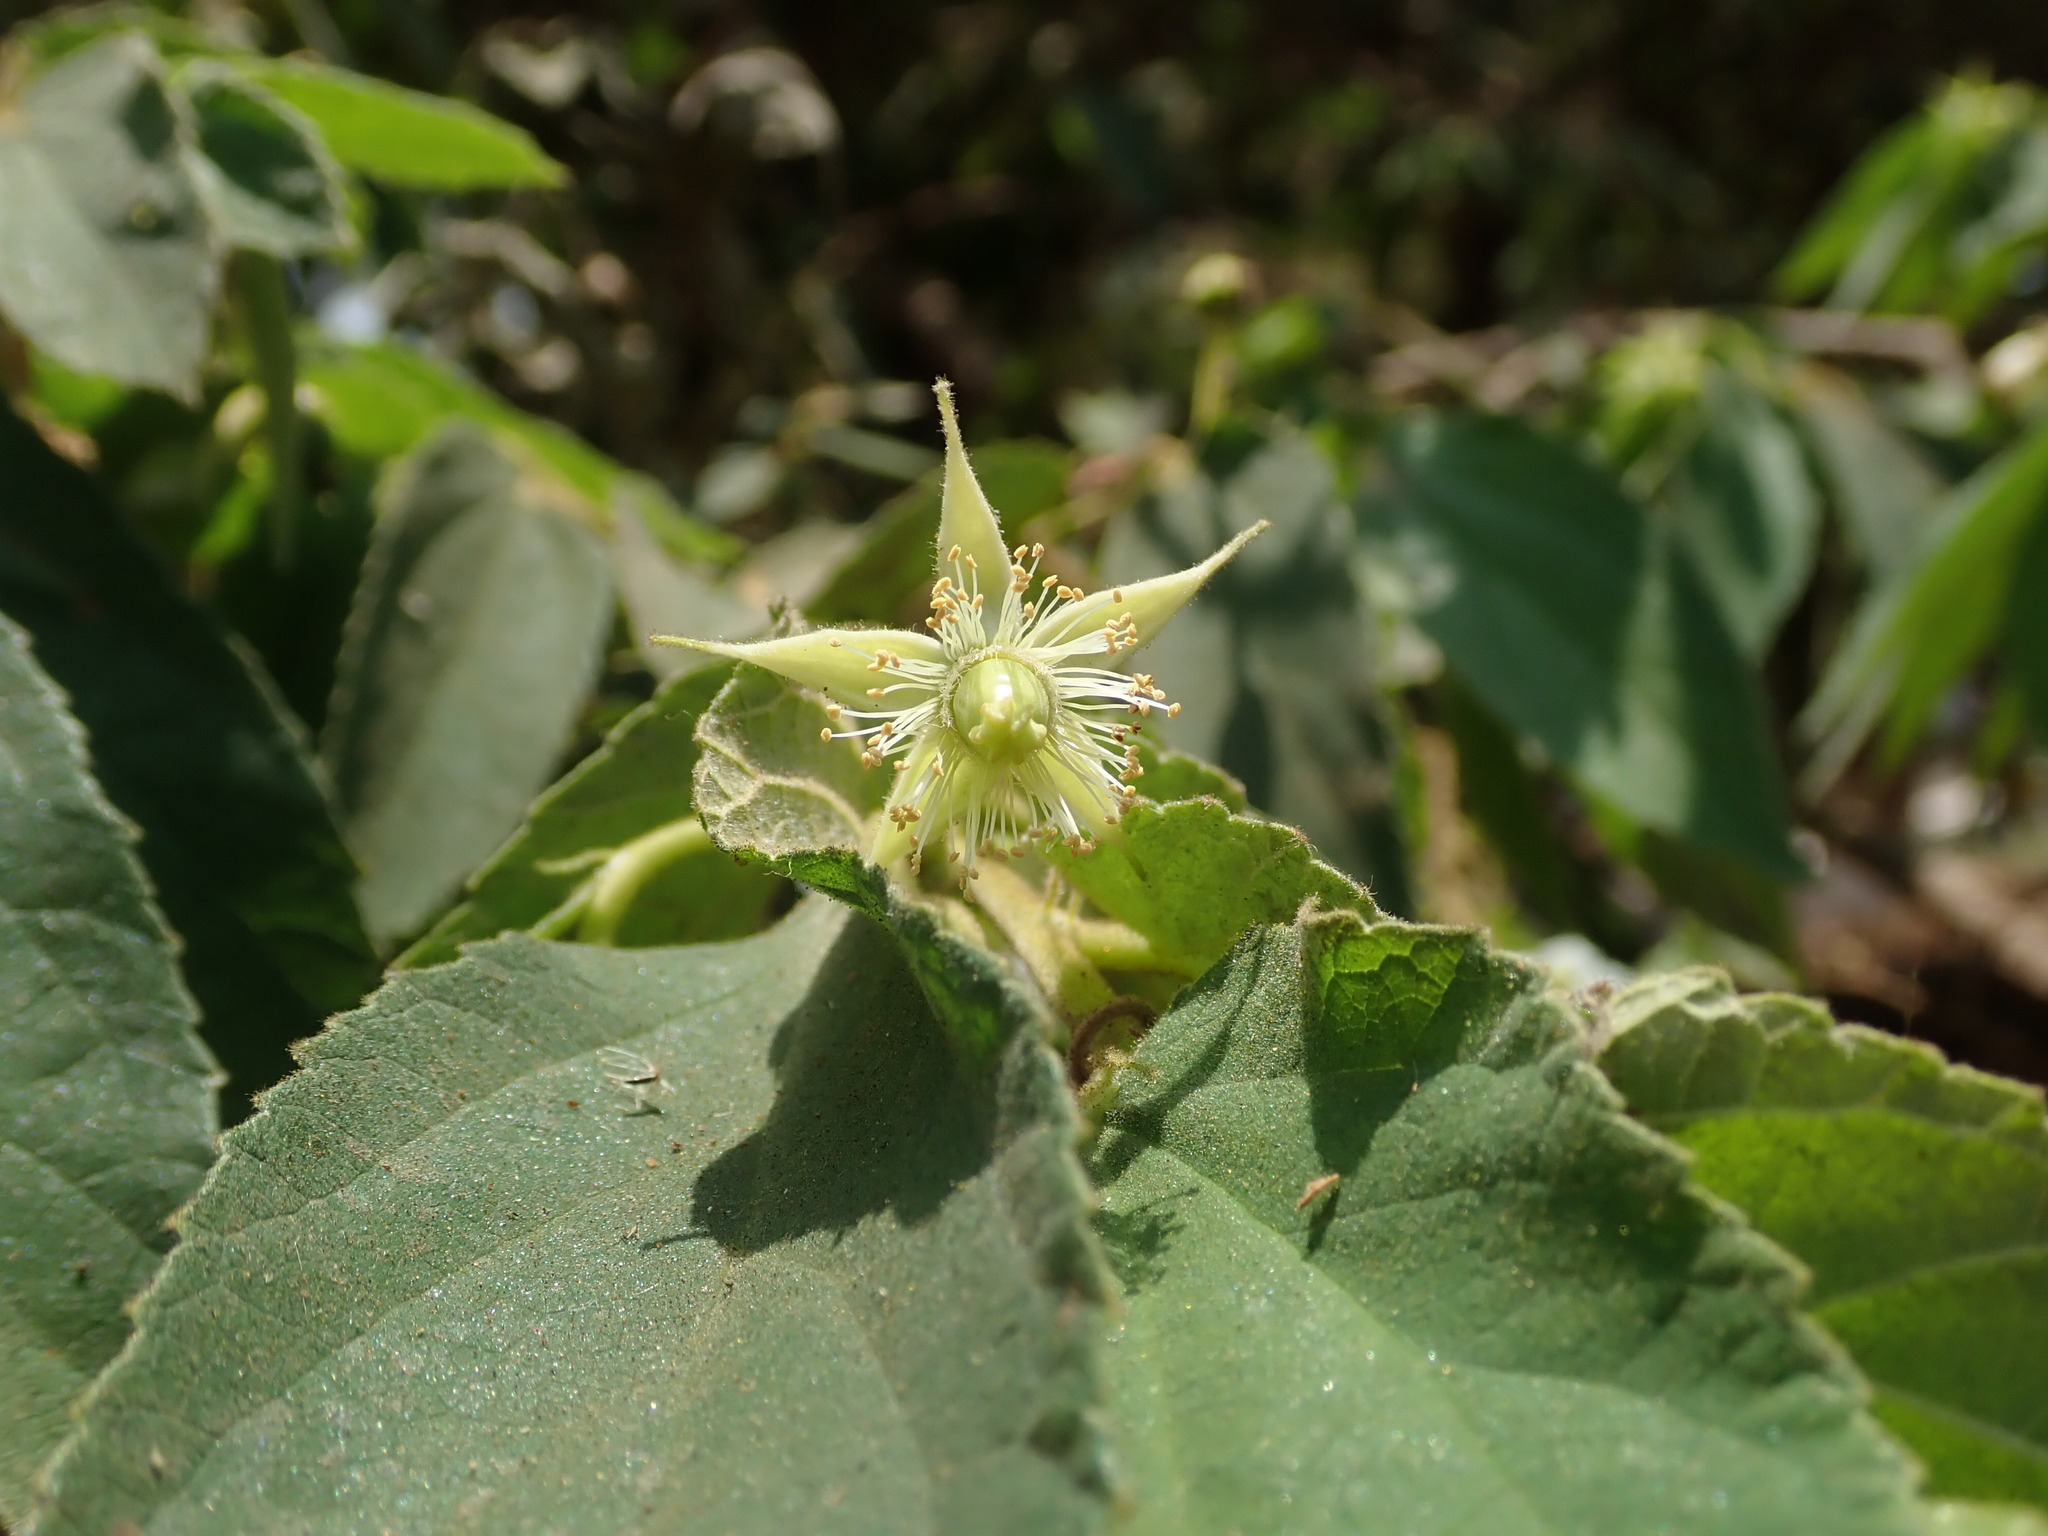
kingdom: Plantae
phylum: Tracheophyta
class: Magnoliopsida
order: Malvales
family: Muntingiaceae
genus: Muntingia
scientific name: Muntingia calabura
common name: Strawberrytree
